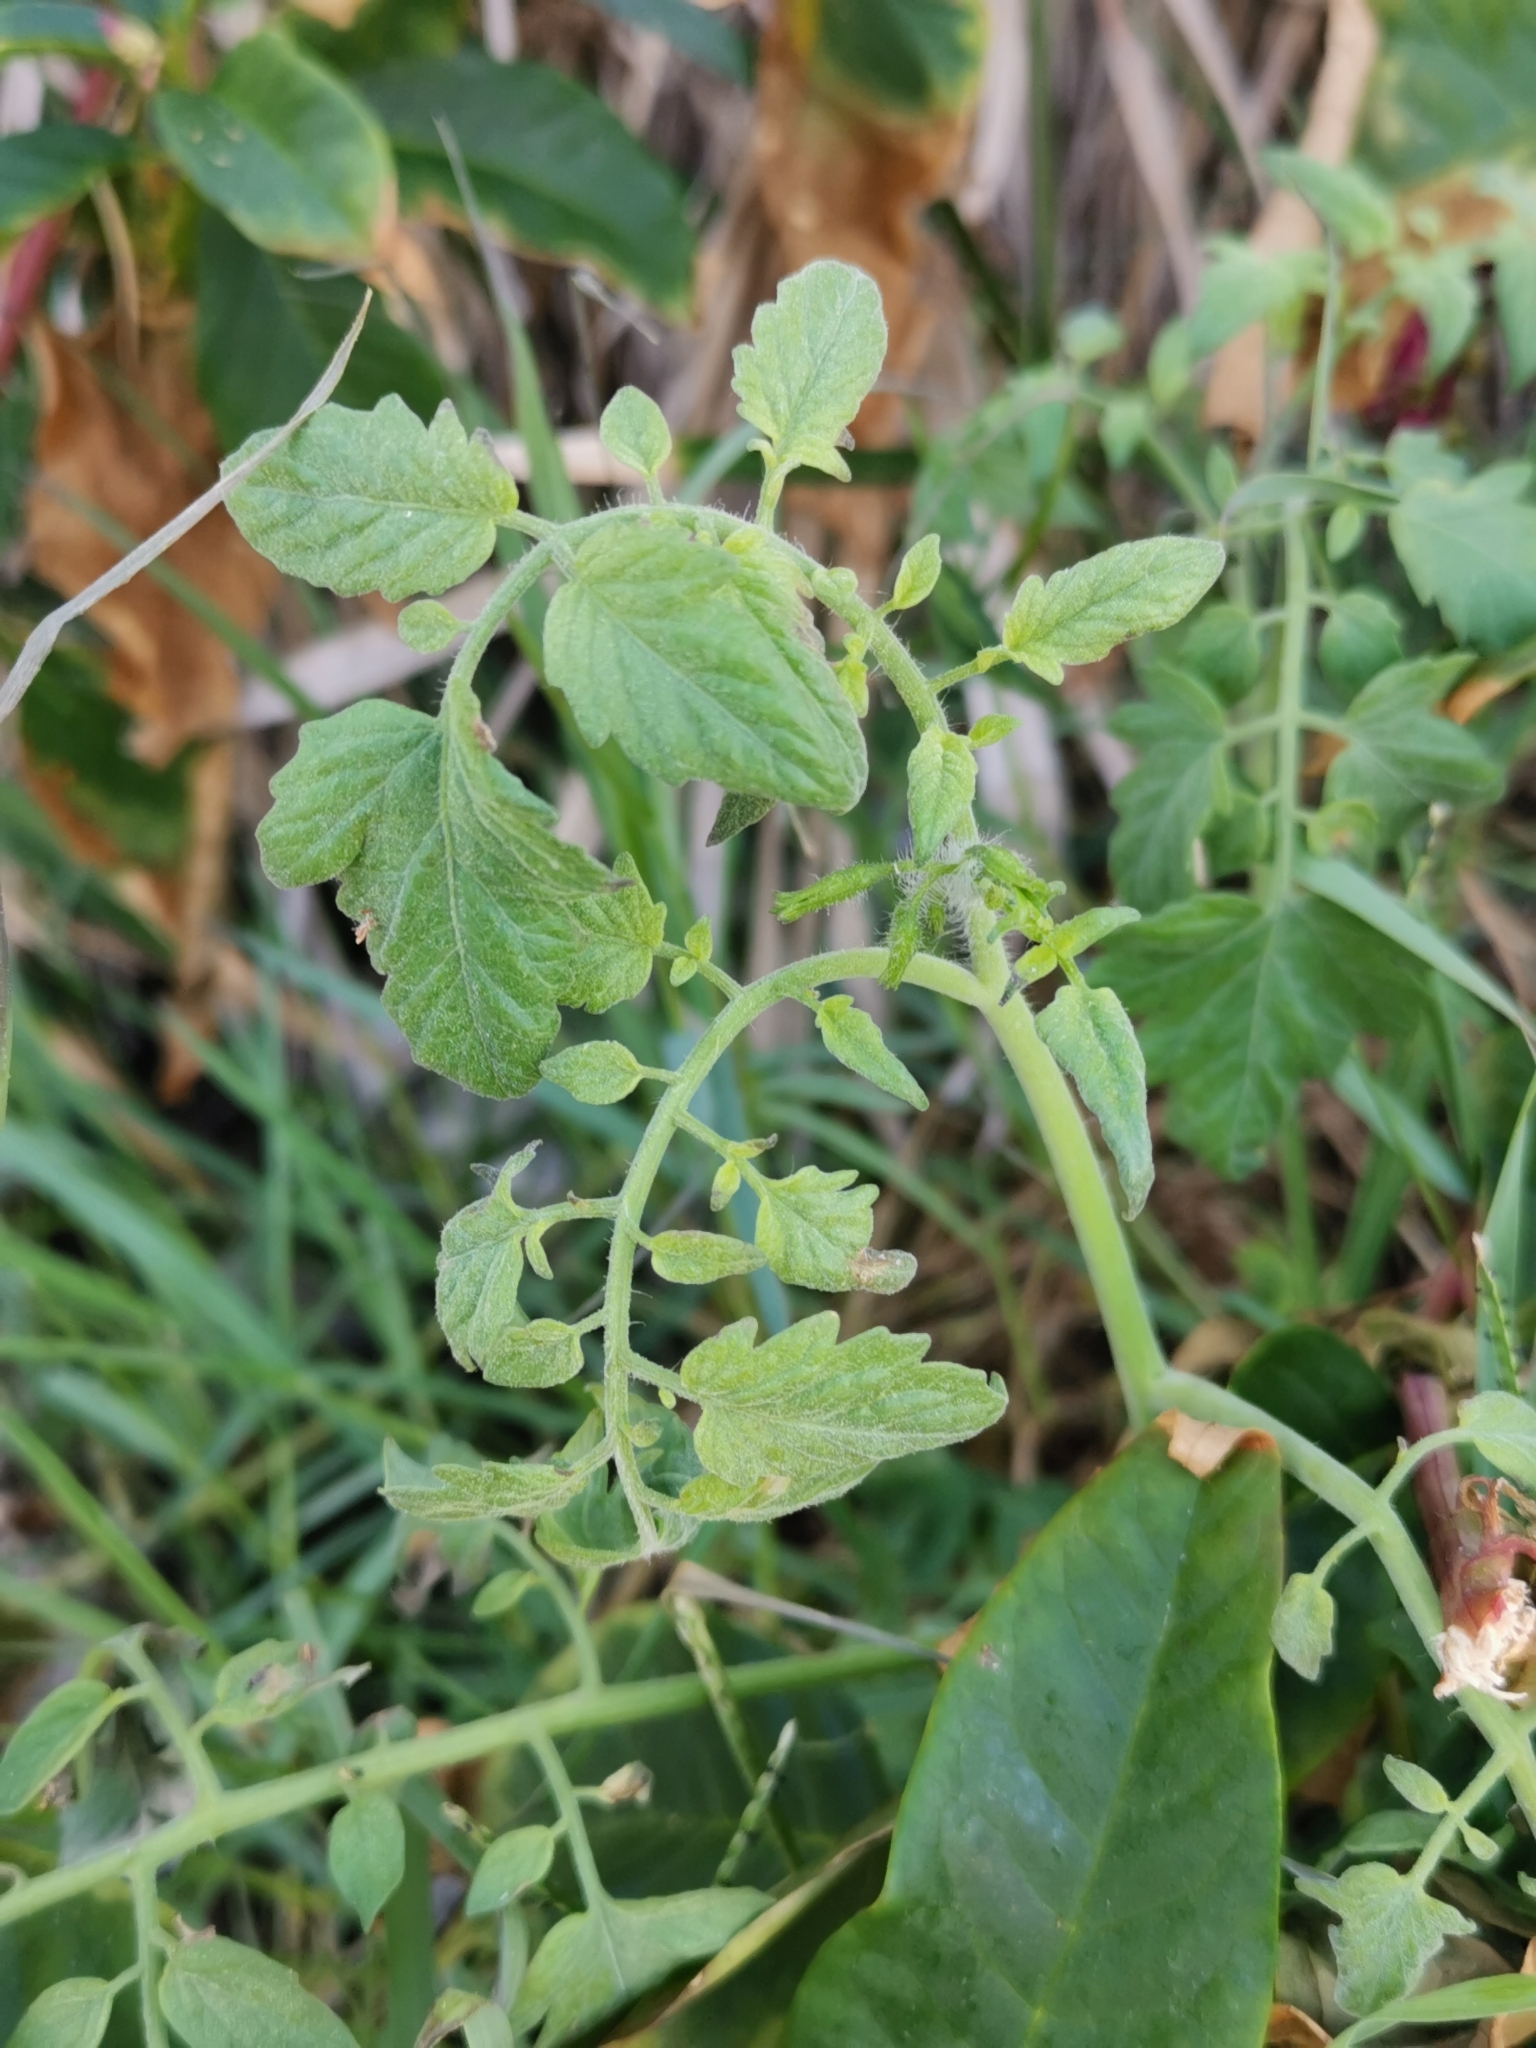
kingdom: Plantae
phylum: Tracheophyta
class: Magnoliopsida
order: Solanales
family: Solanaceae
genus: Solanum
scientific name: Solanum lycopersicum
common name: Garden tomato
